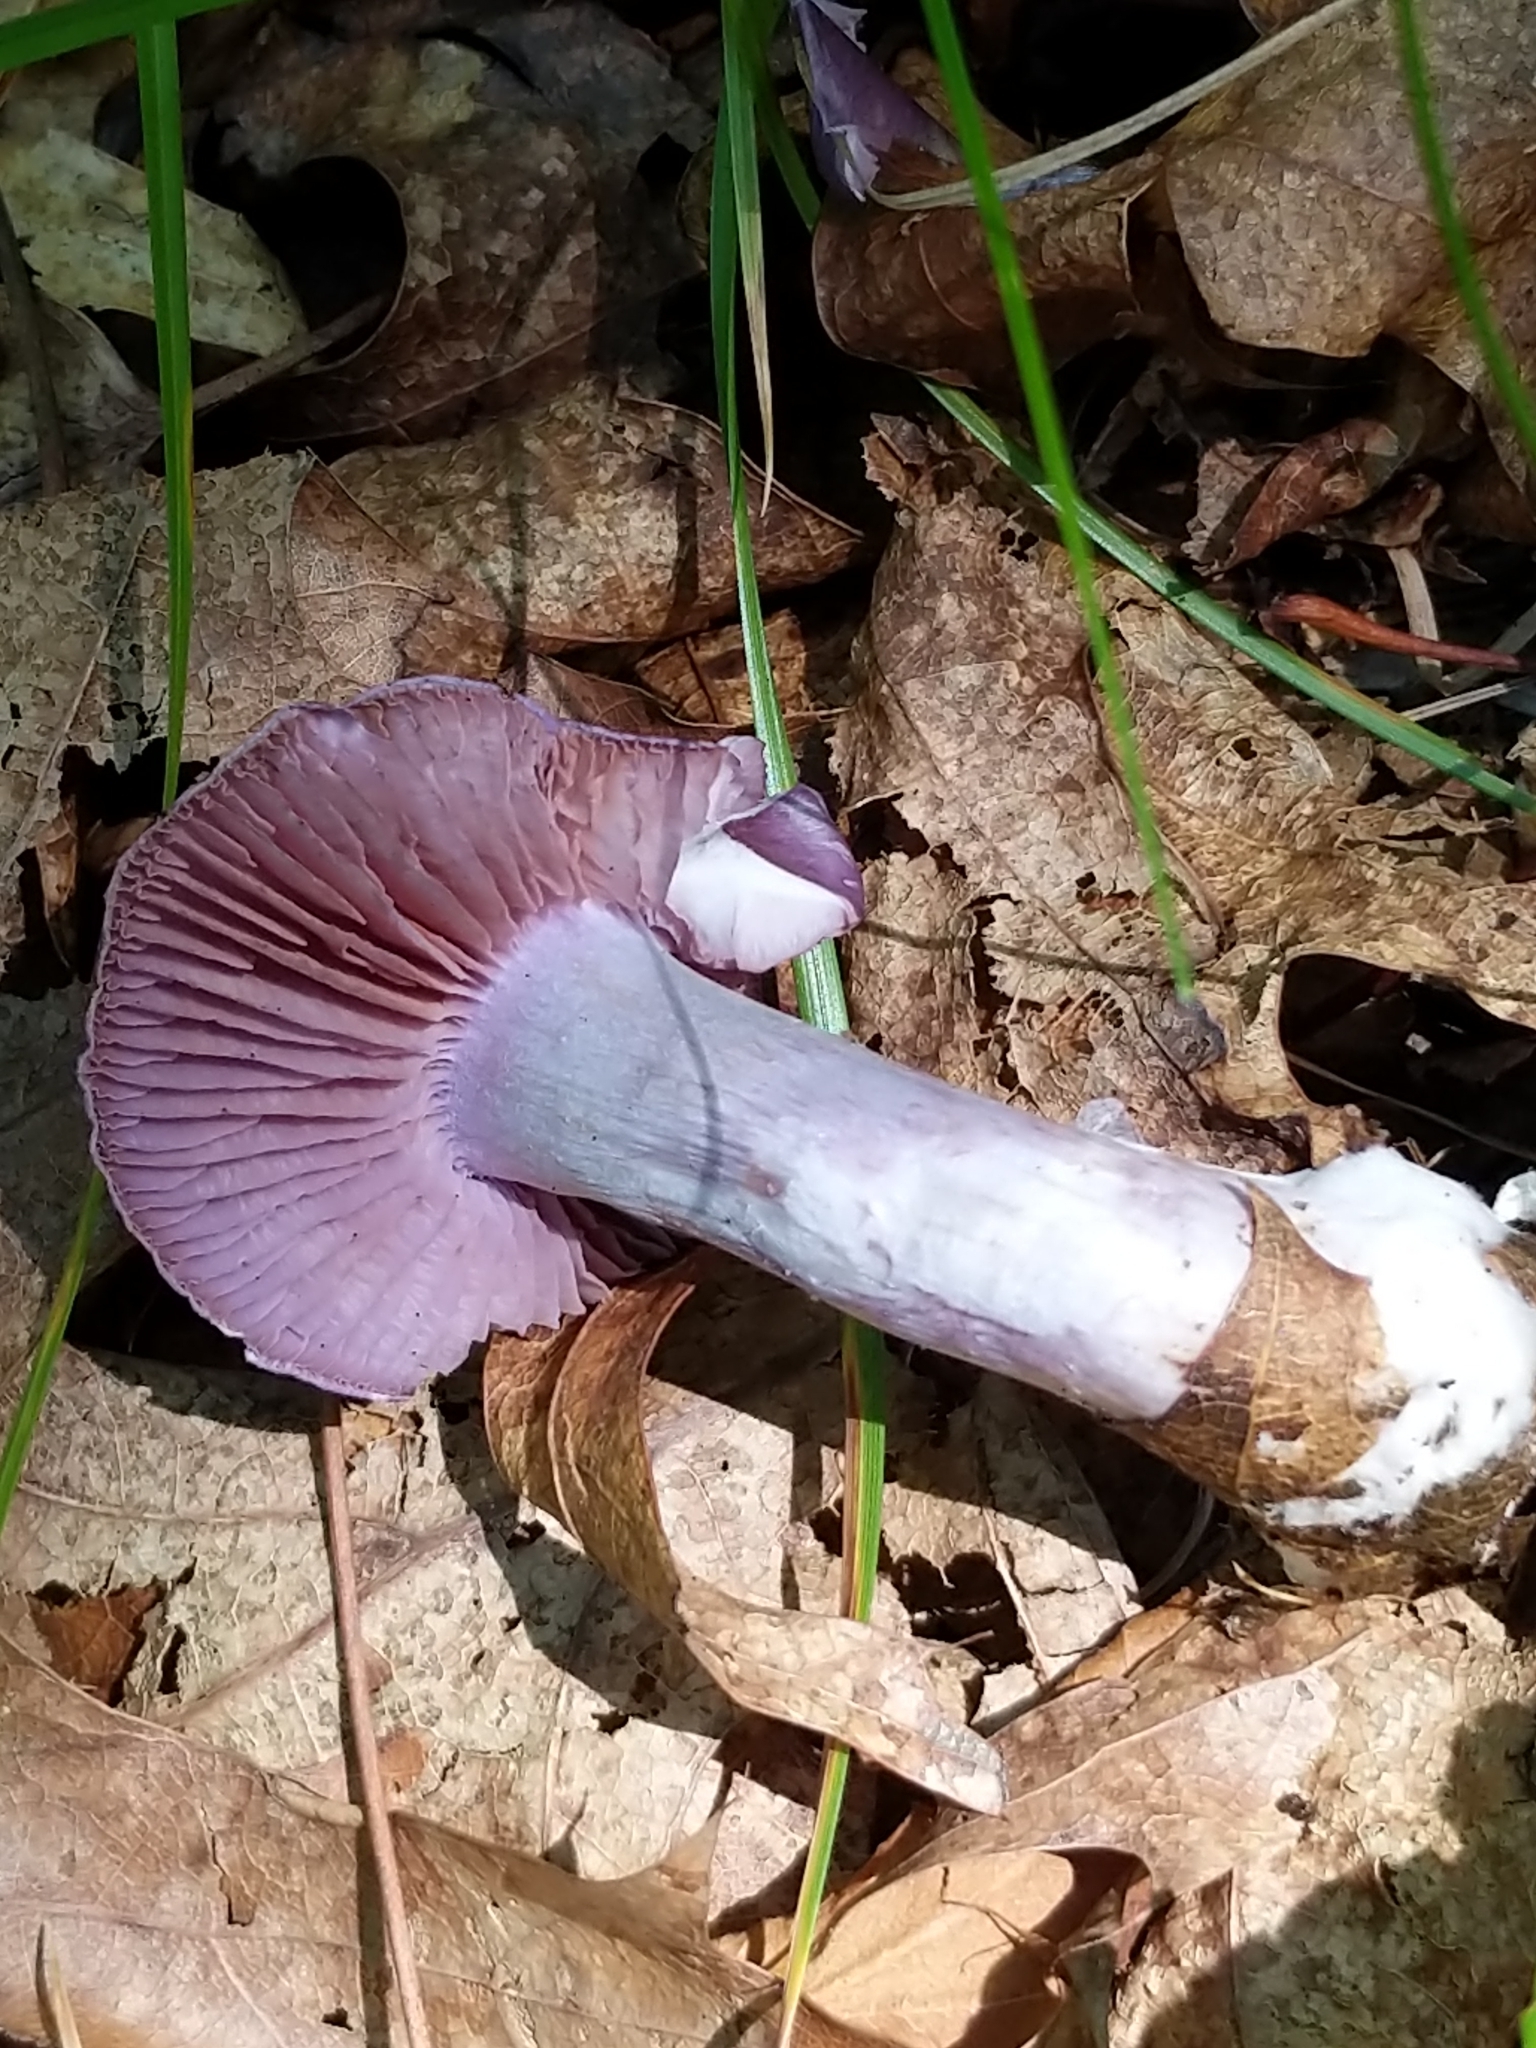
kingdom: Fungi
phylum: Basidiomycota
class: Agaricomycetes
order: Agaricales
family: Cortinariaceae
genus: Cortinarius
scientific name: Cortinarius iodes
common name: Viscid violet cort
